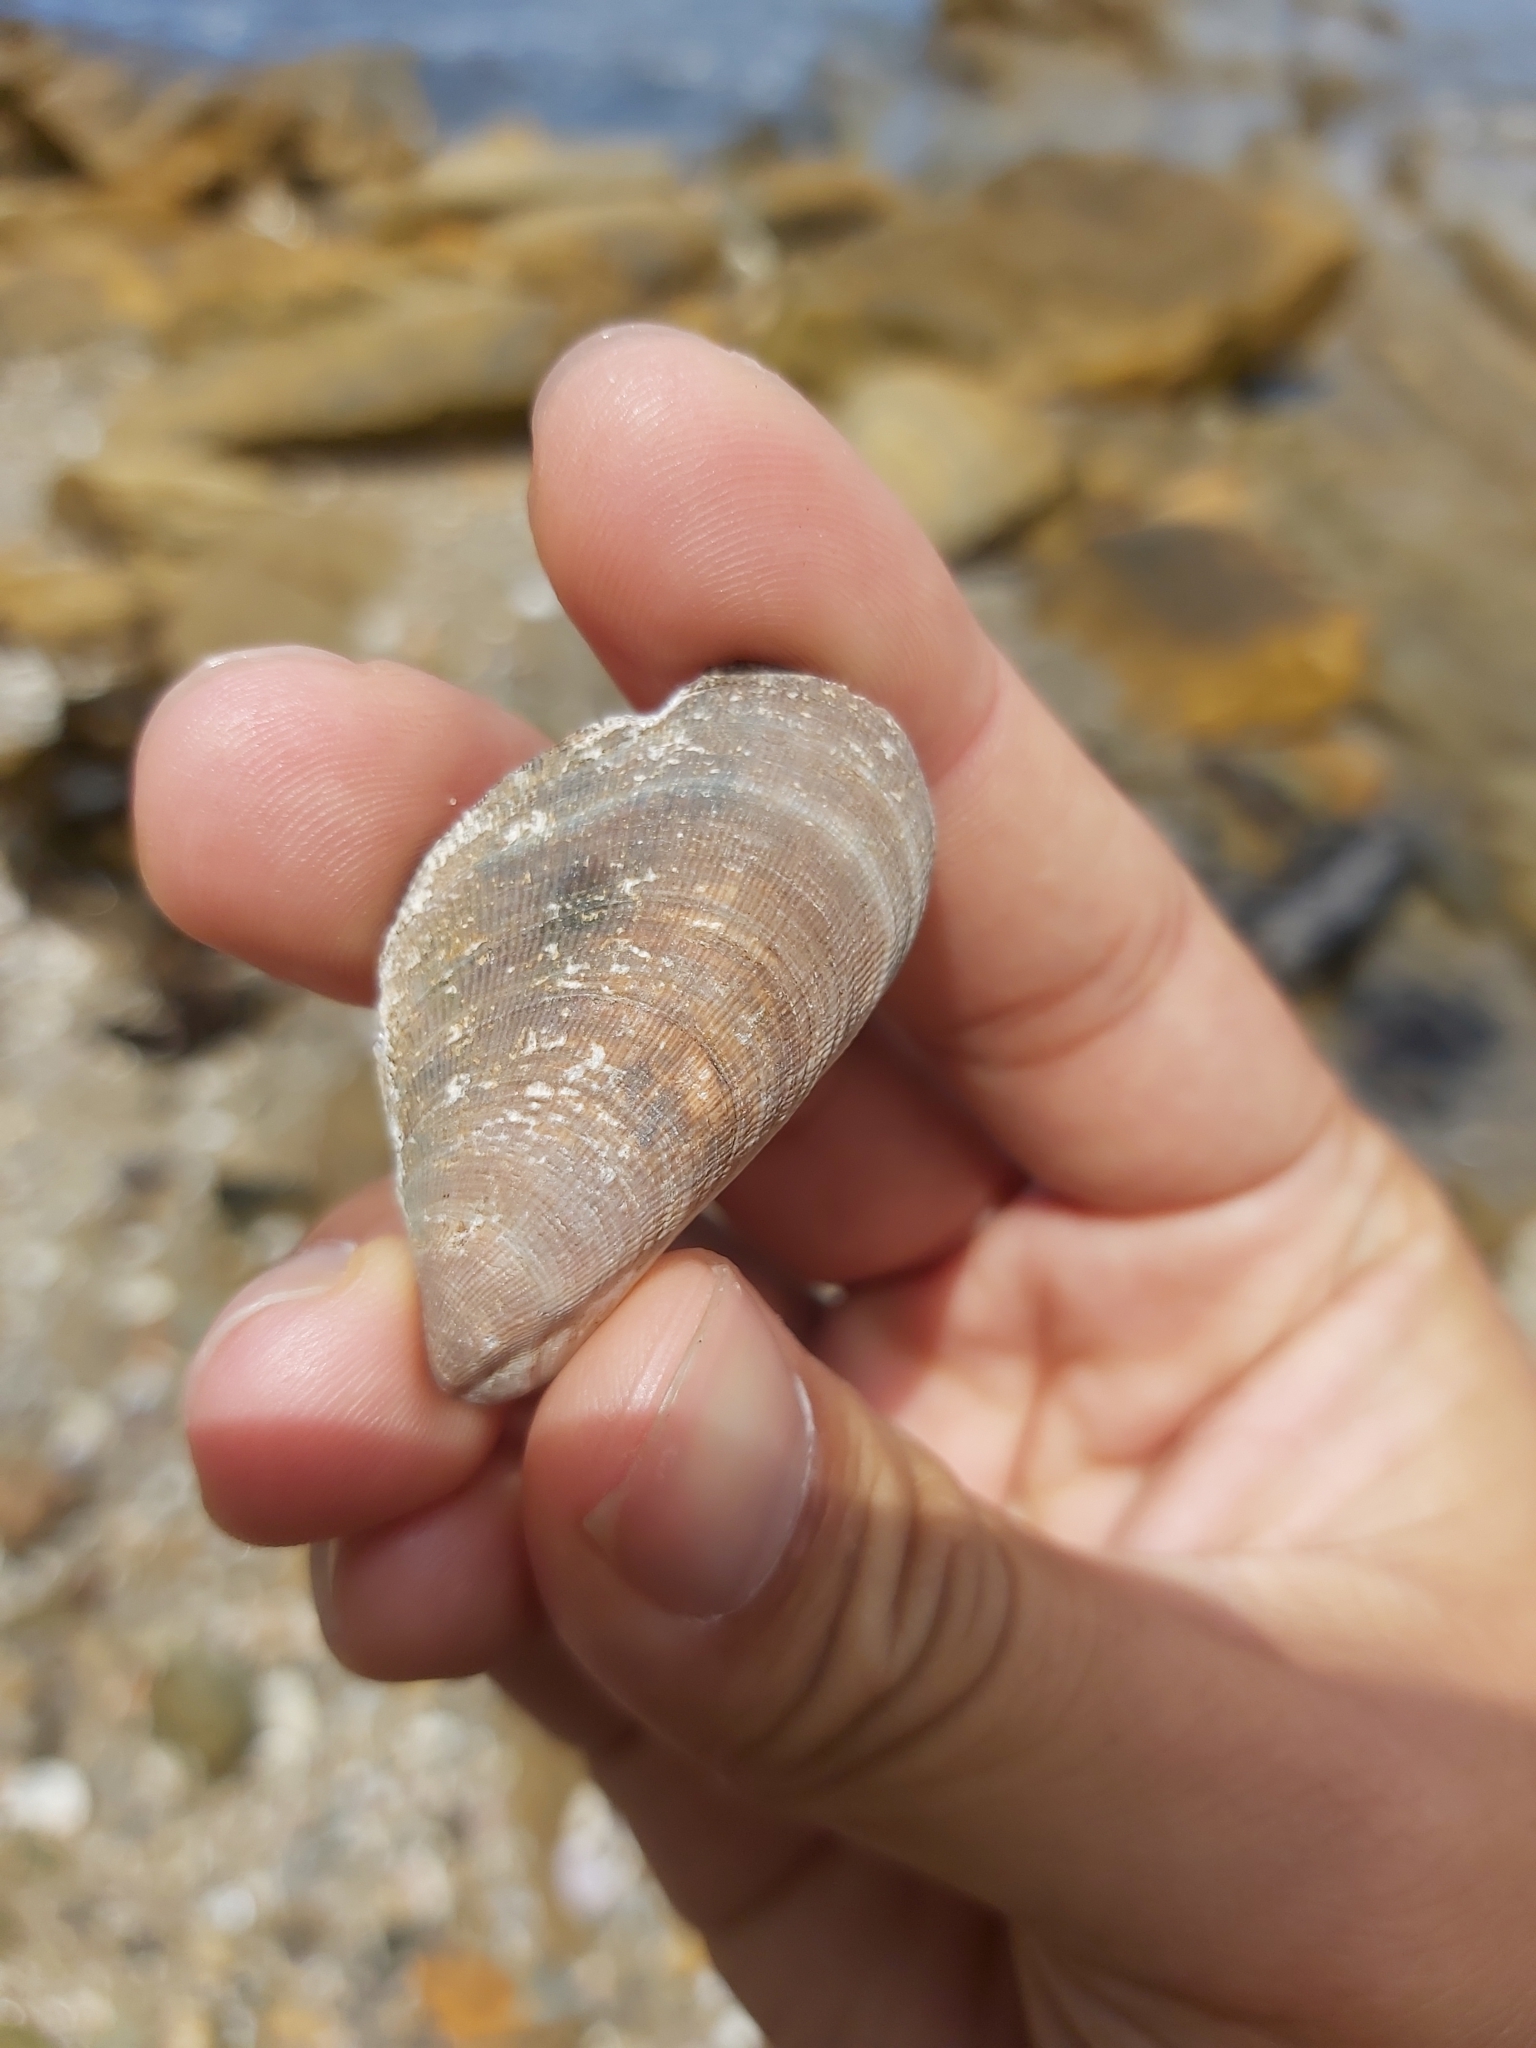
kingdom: Animalia
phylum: Mollusca
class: Bivalvia
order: Mytilida
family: Mytilidae
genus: Trichomya
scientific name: Trichomya hirsuta
